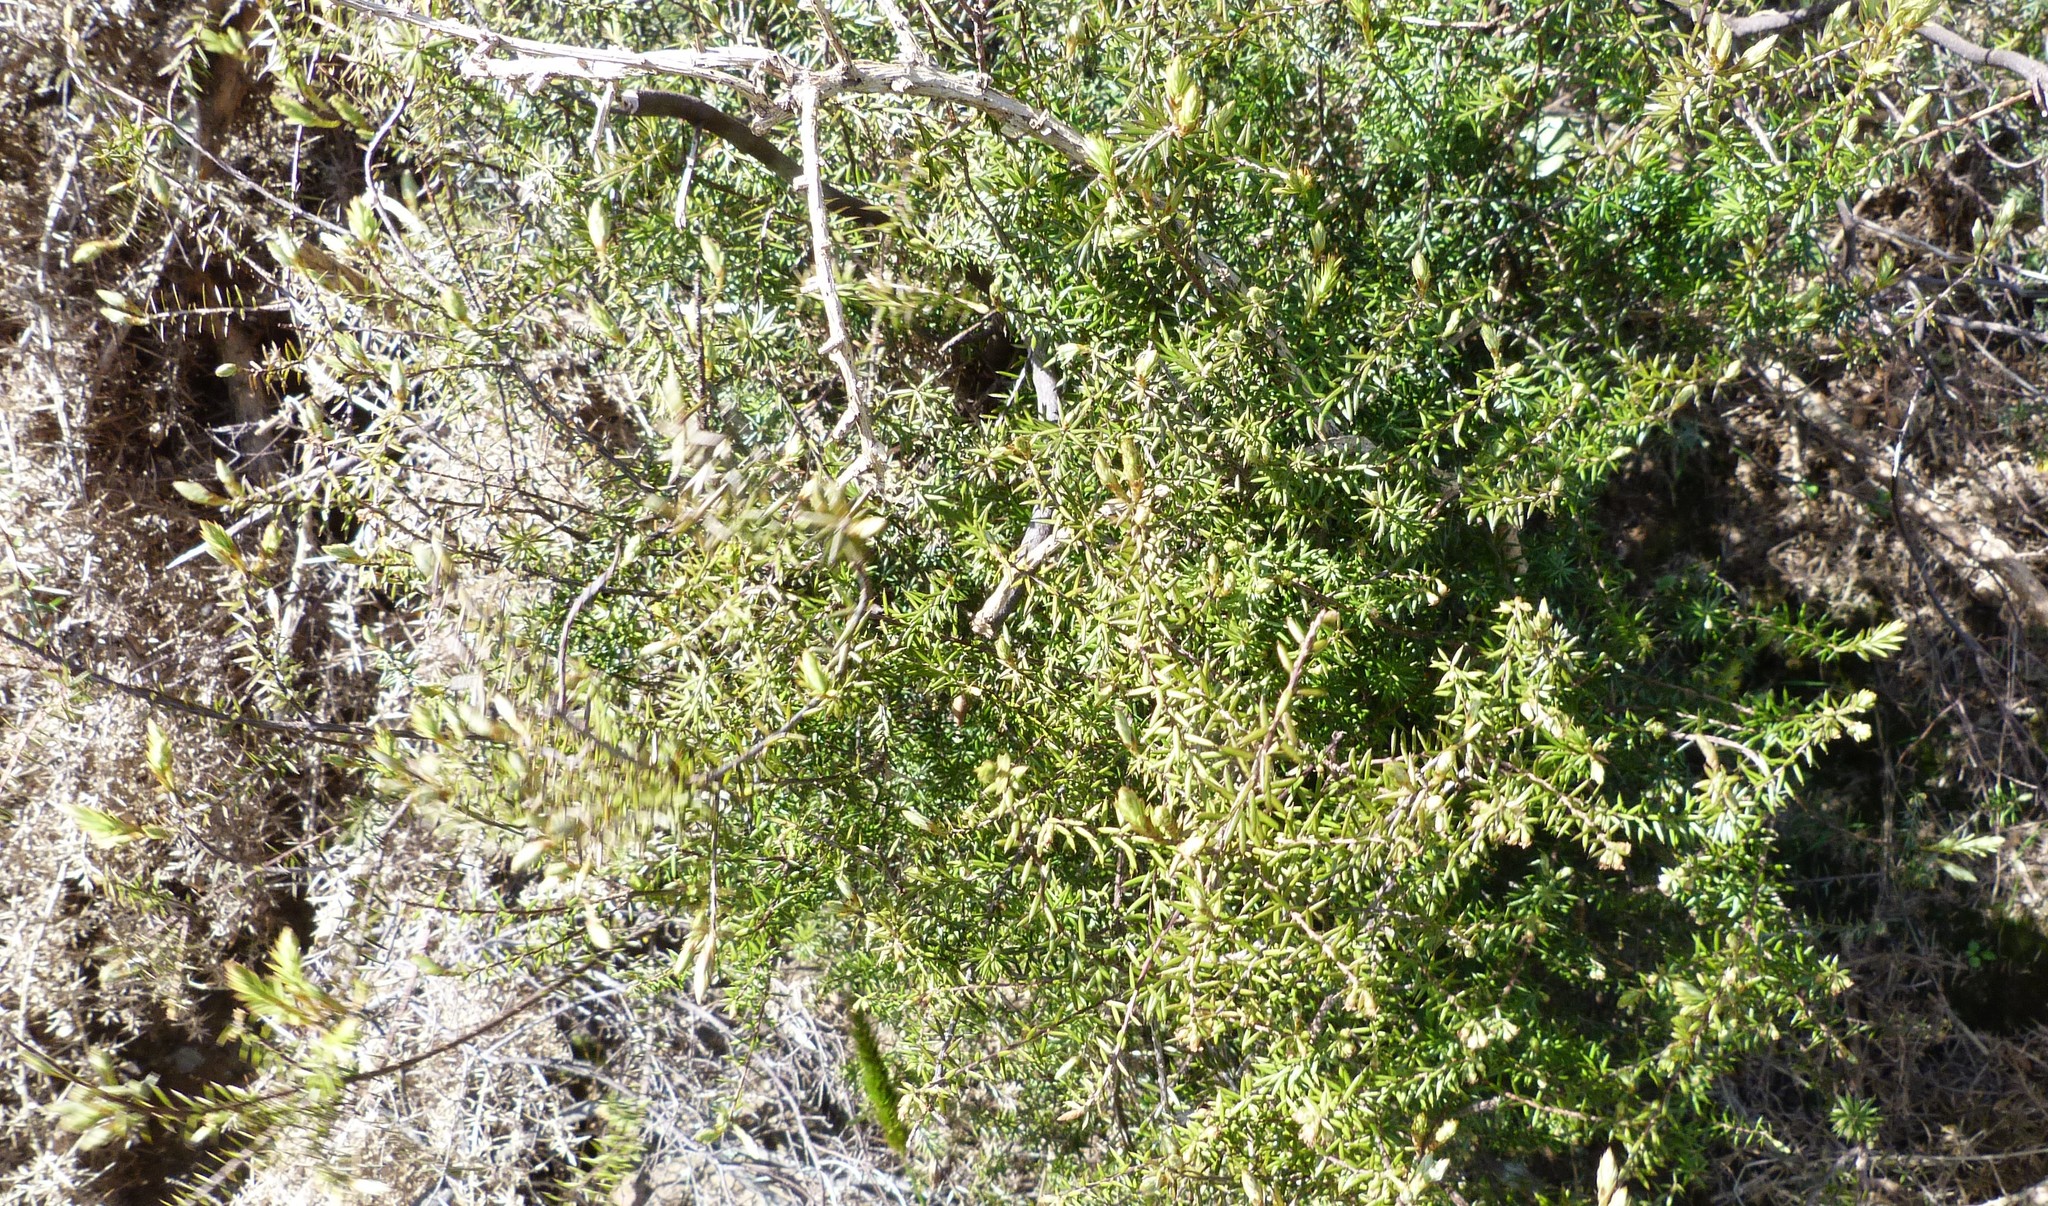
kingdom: Plantae
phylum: Tracheophyta
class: Magnoliopsida
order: Ericales
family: Ericaceae
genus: Leptecophylla
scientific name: Leptecophylla juniperina
